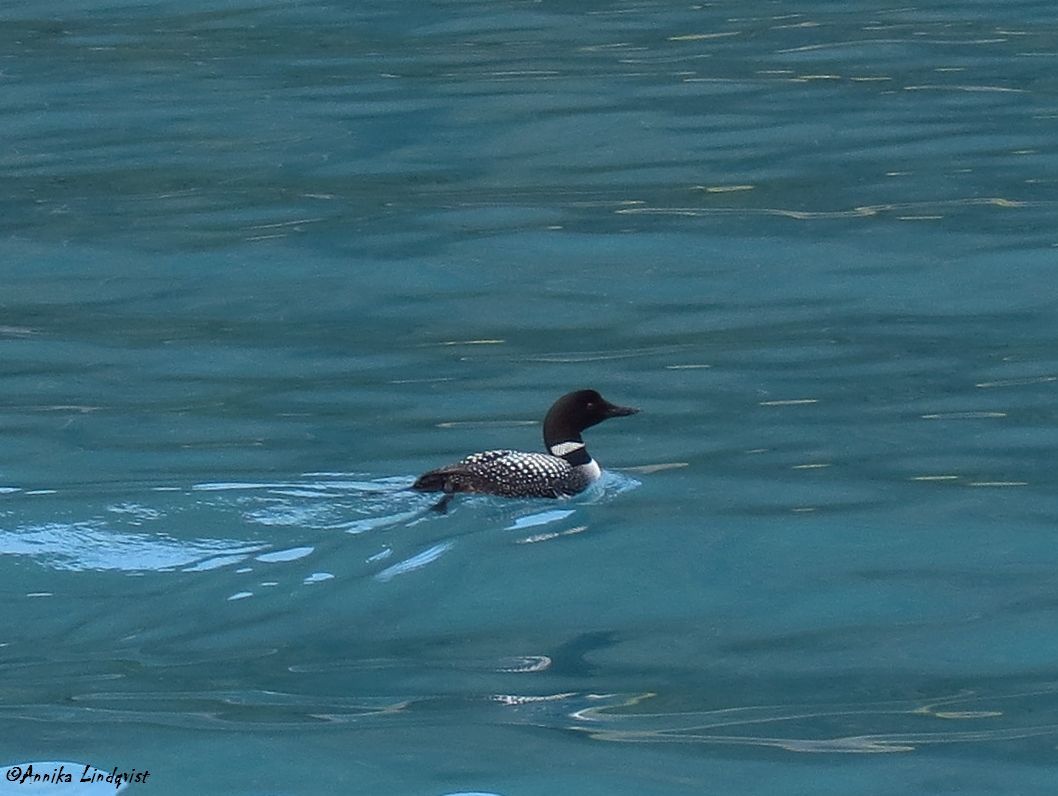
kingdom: Animalia
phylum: Chordata
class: Aves
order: Gaviiformes
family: Gaviidae
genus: Gavia
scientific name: Gavia immer
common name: Common loon
